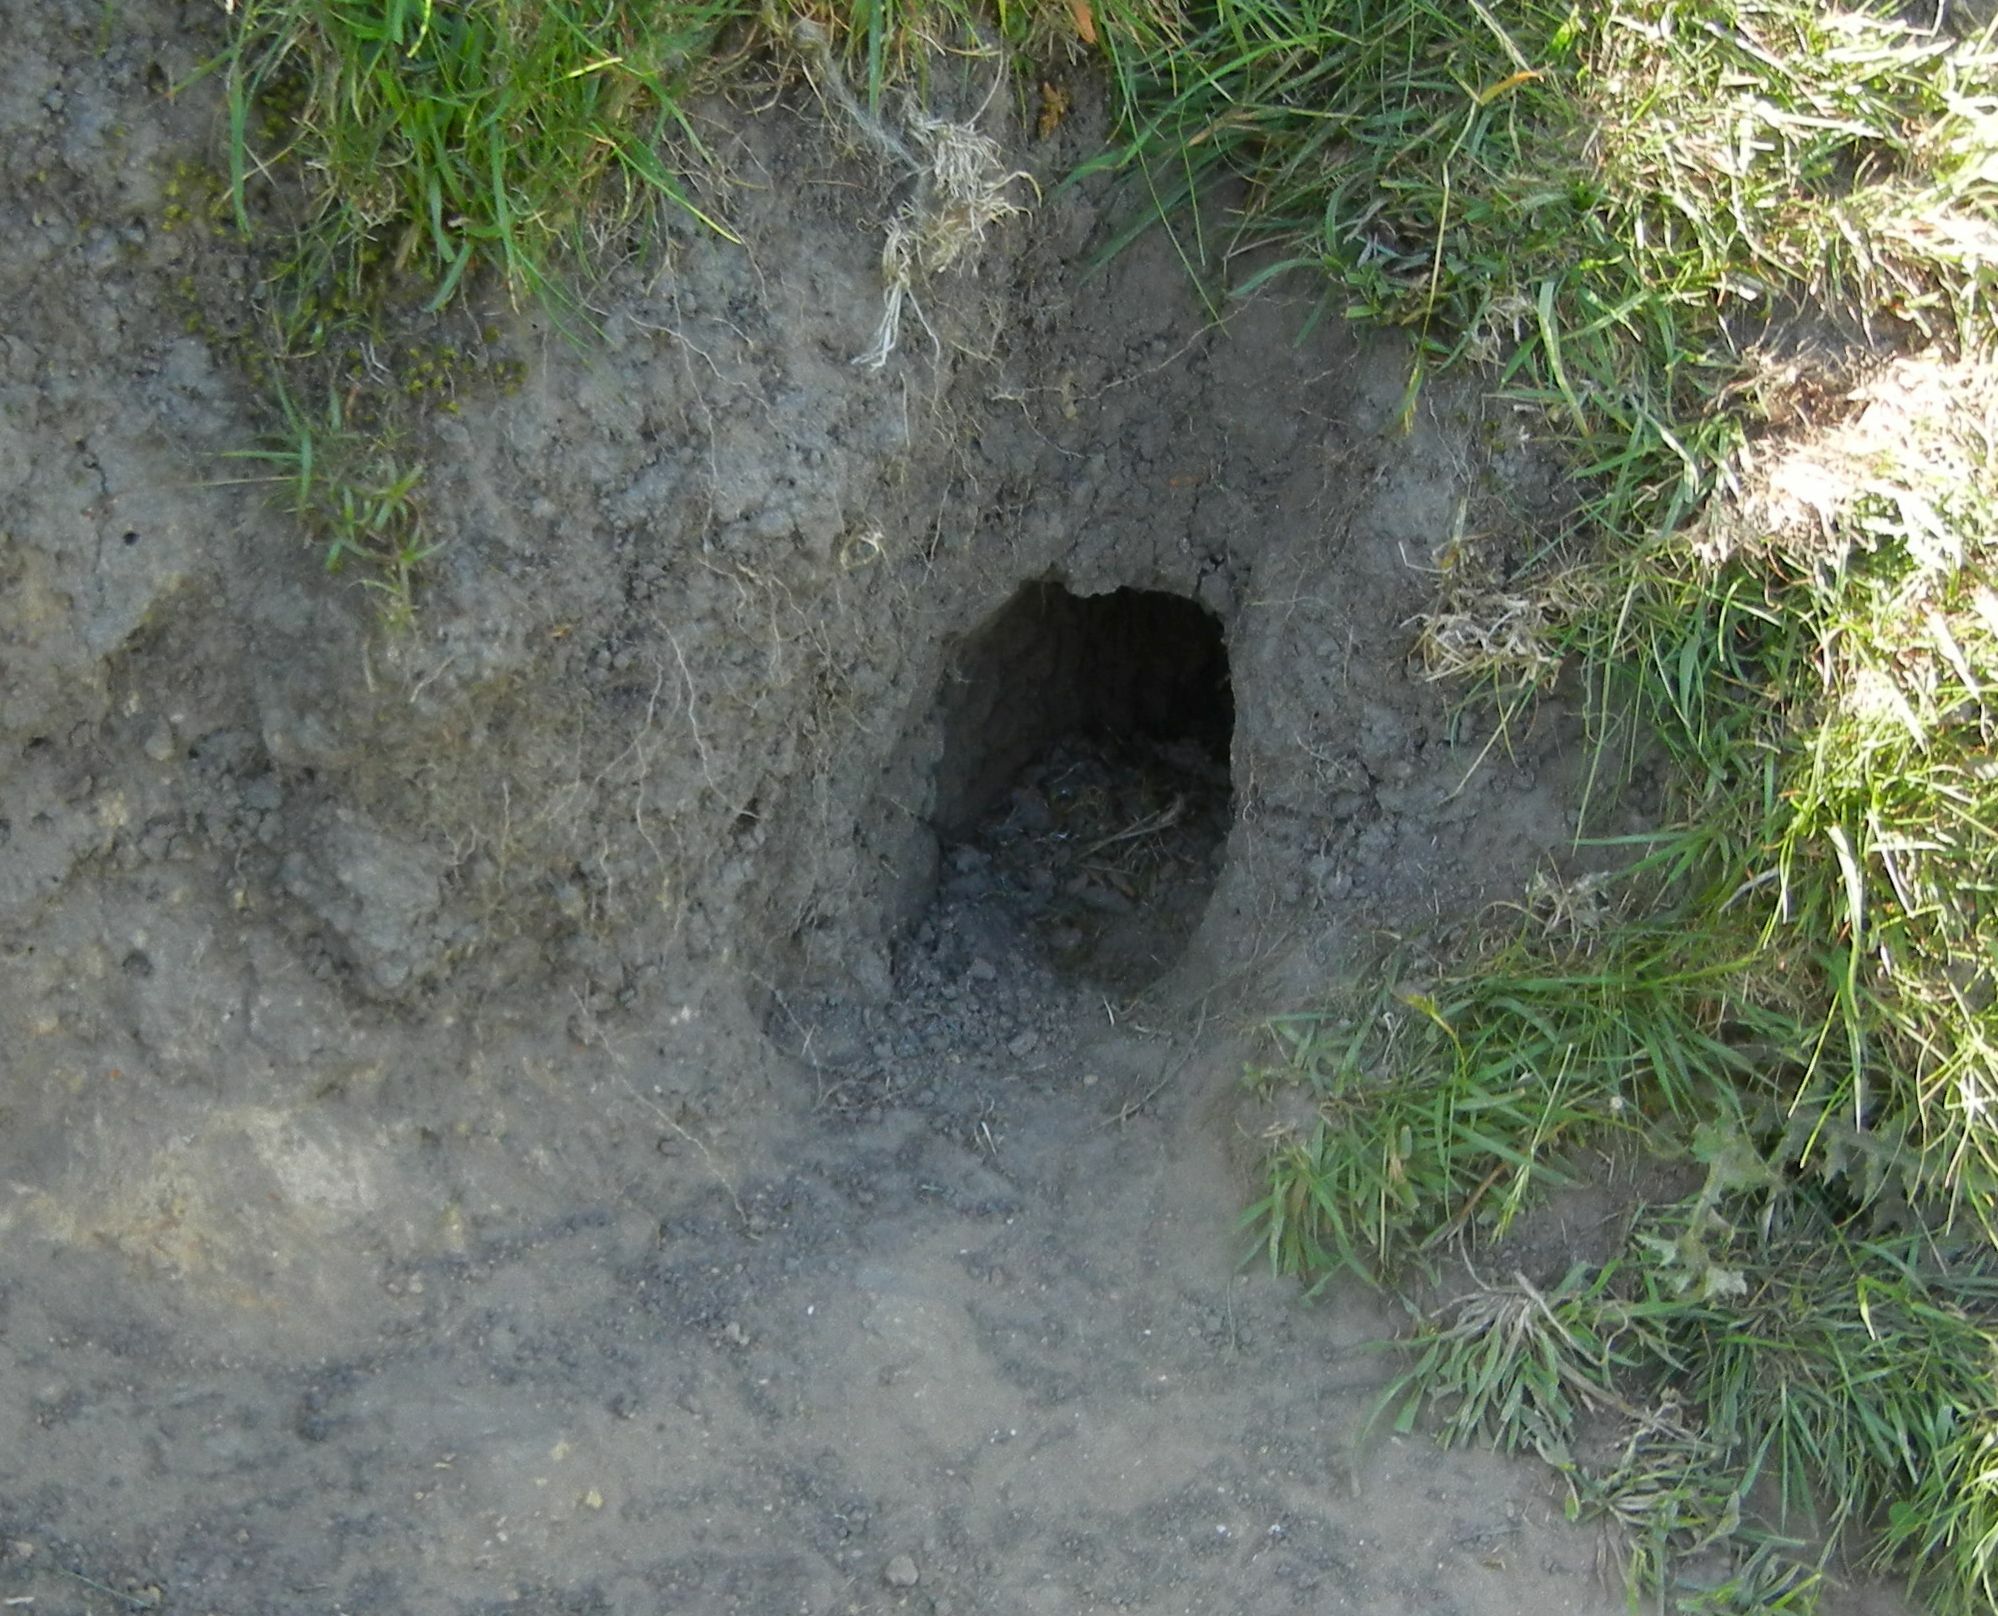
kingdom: Animalia
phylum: Chordata
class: Mammalia
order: Lagomorpha
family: Leporidae
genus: Oryctolagus
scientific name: Oryctolagus cuniculus
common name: European rabbit
